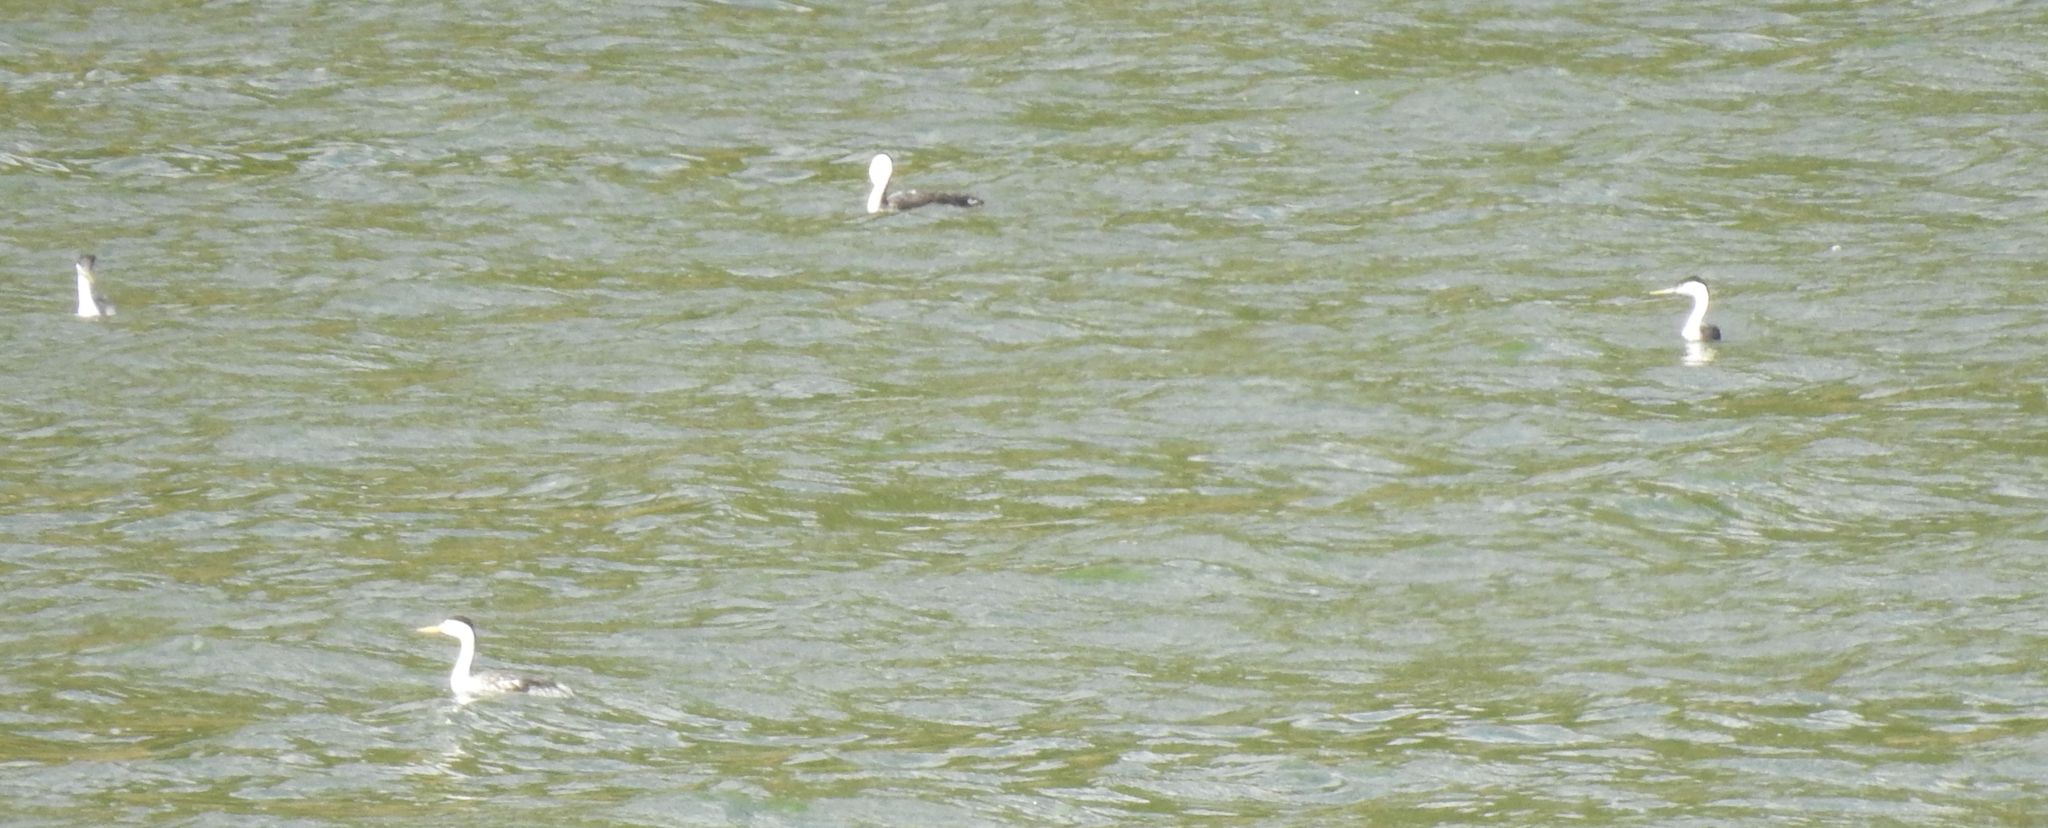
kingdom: Animalia
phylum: Chordata
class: Aves
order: Podicipediformes
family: Podicipedidae
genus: Aechmophorus
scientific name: Aechmophorus clarkii
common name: Clark's grebe
